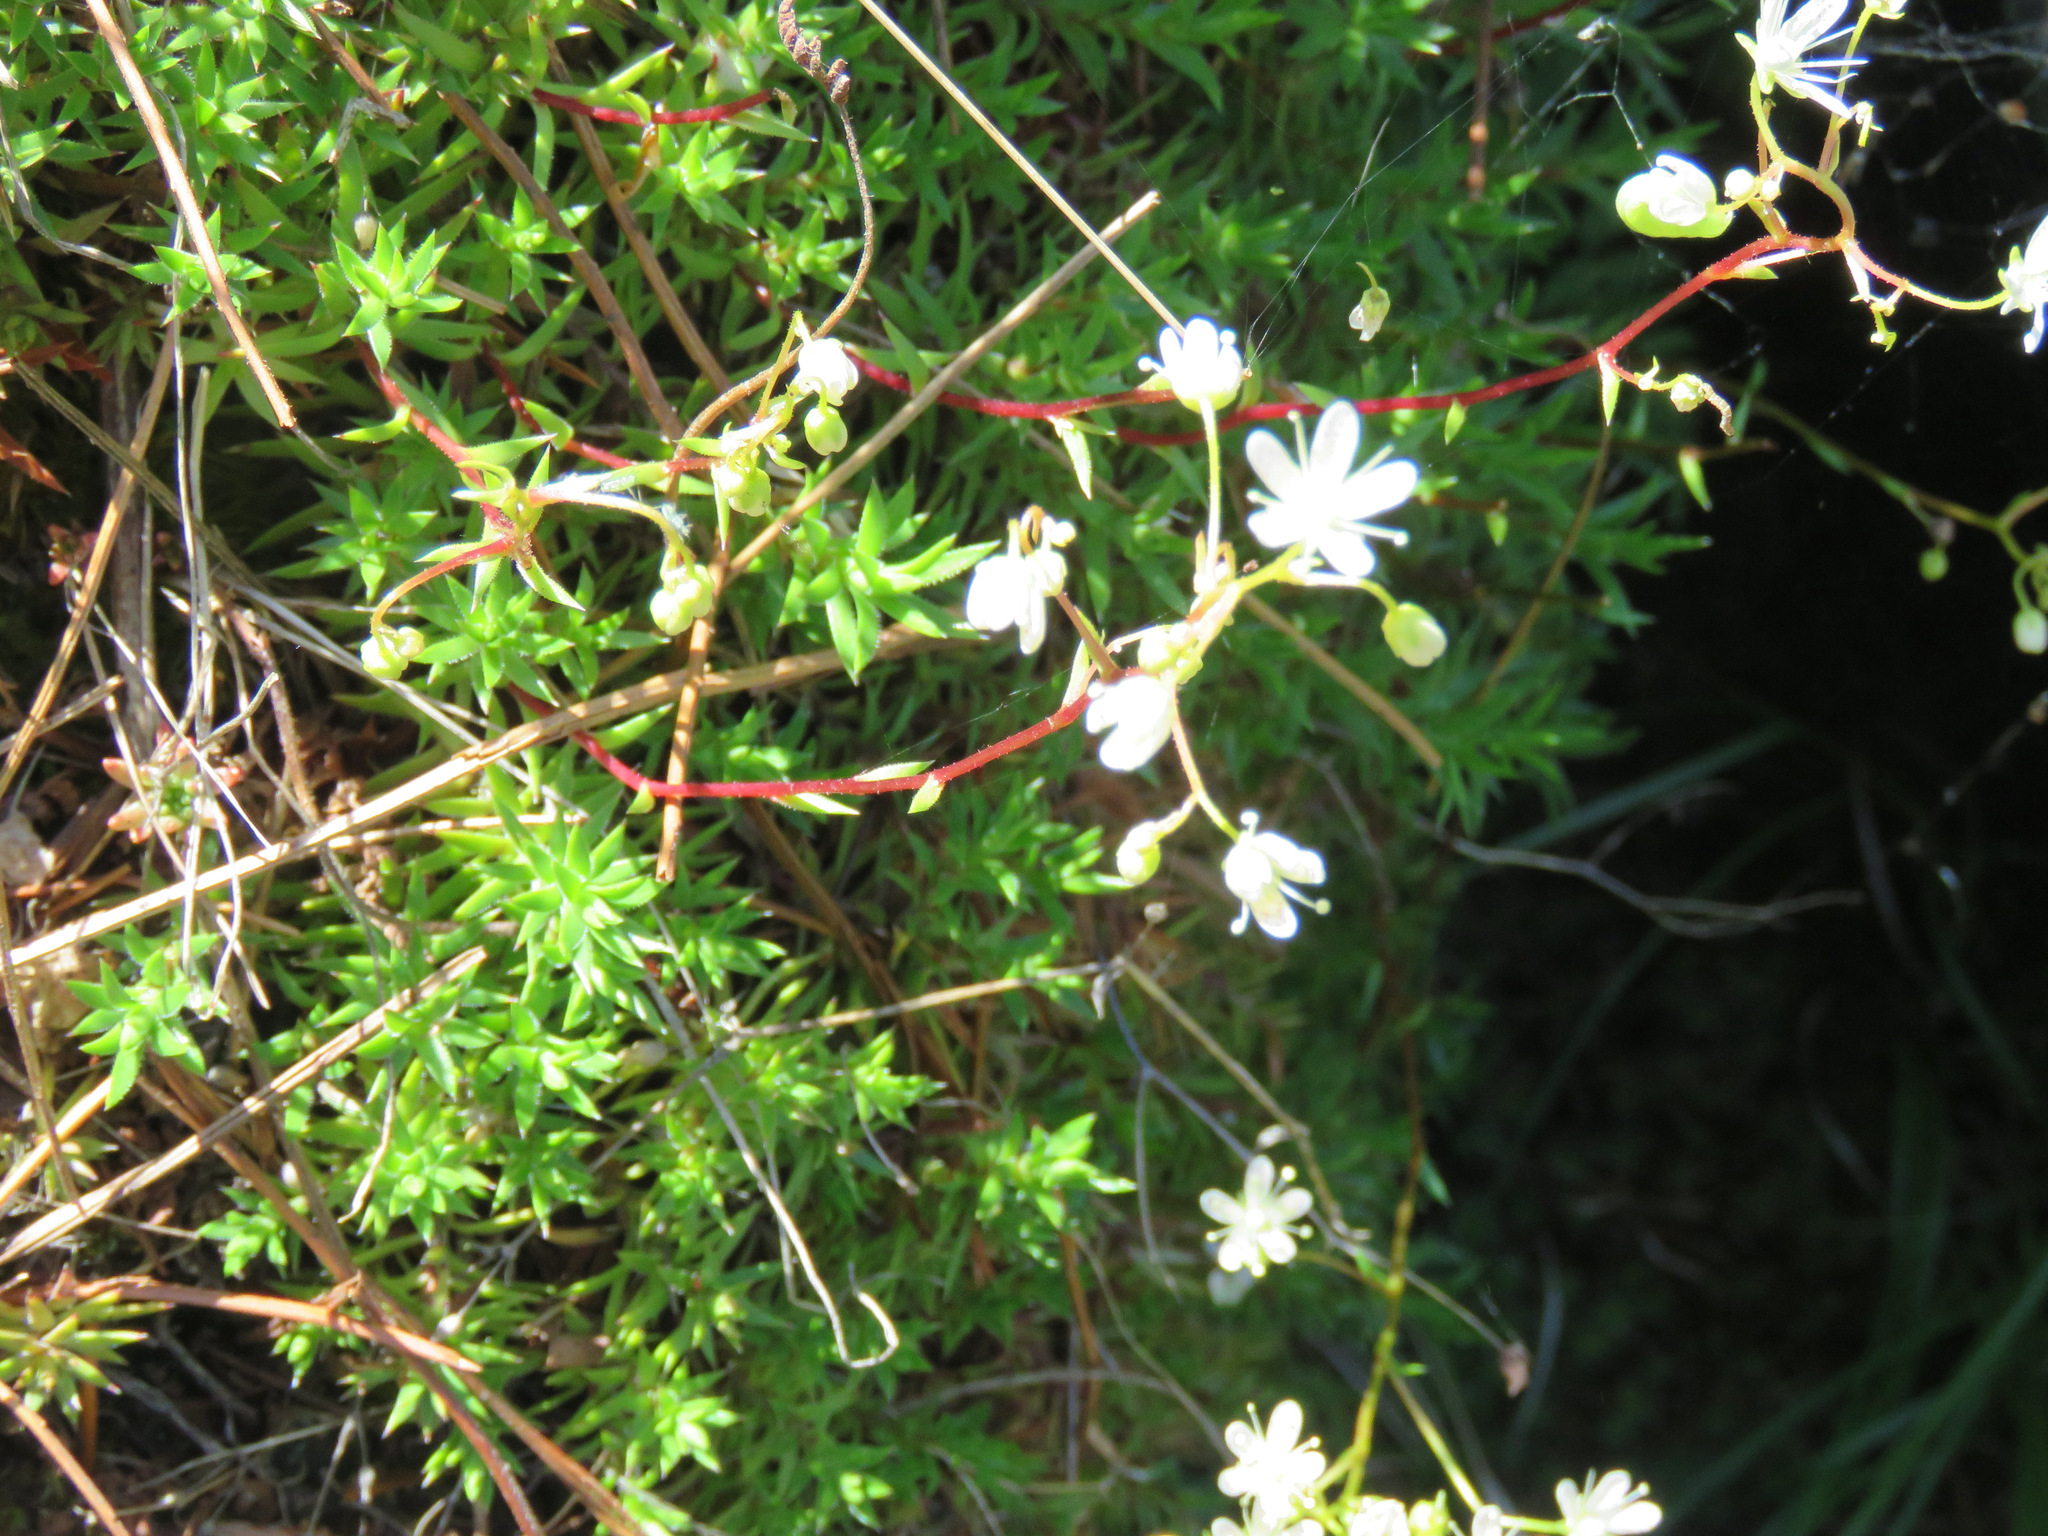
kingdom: Plantae
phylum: Tracheophyta
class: Magnoliopsida
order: Saxifragales
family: Saxifragaceae
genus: Saxifraga
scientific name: Saxifraga bronchialis
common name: Matted saxifrage
